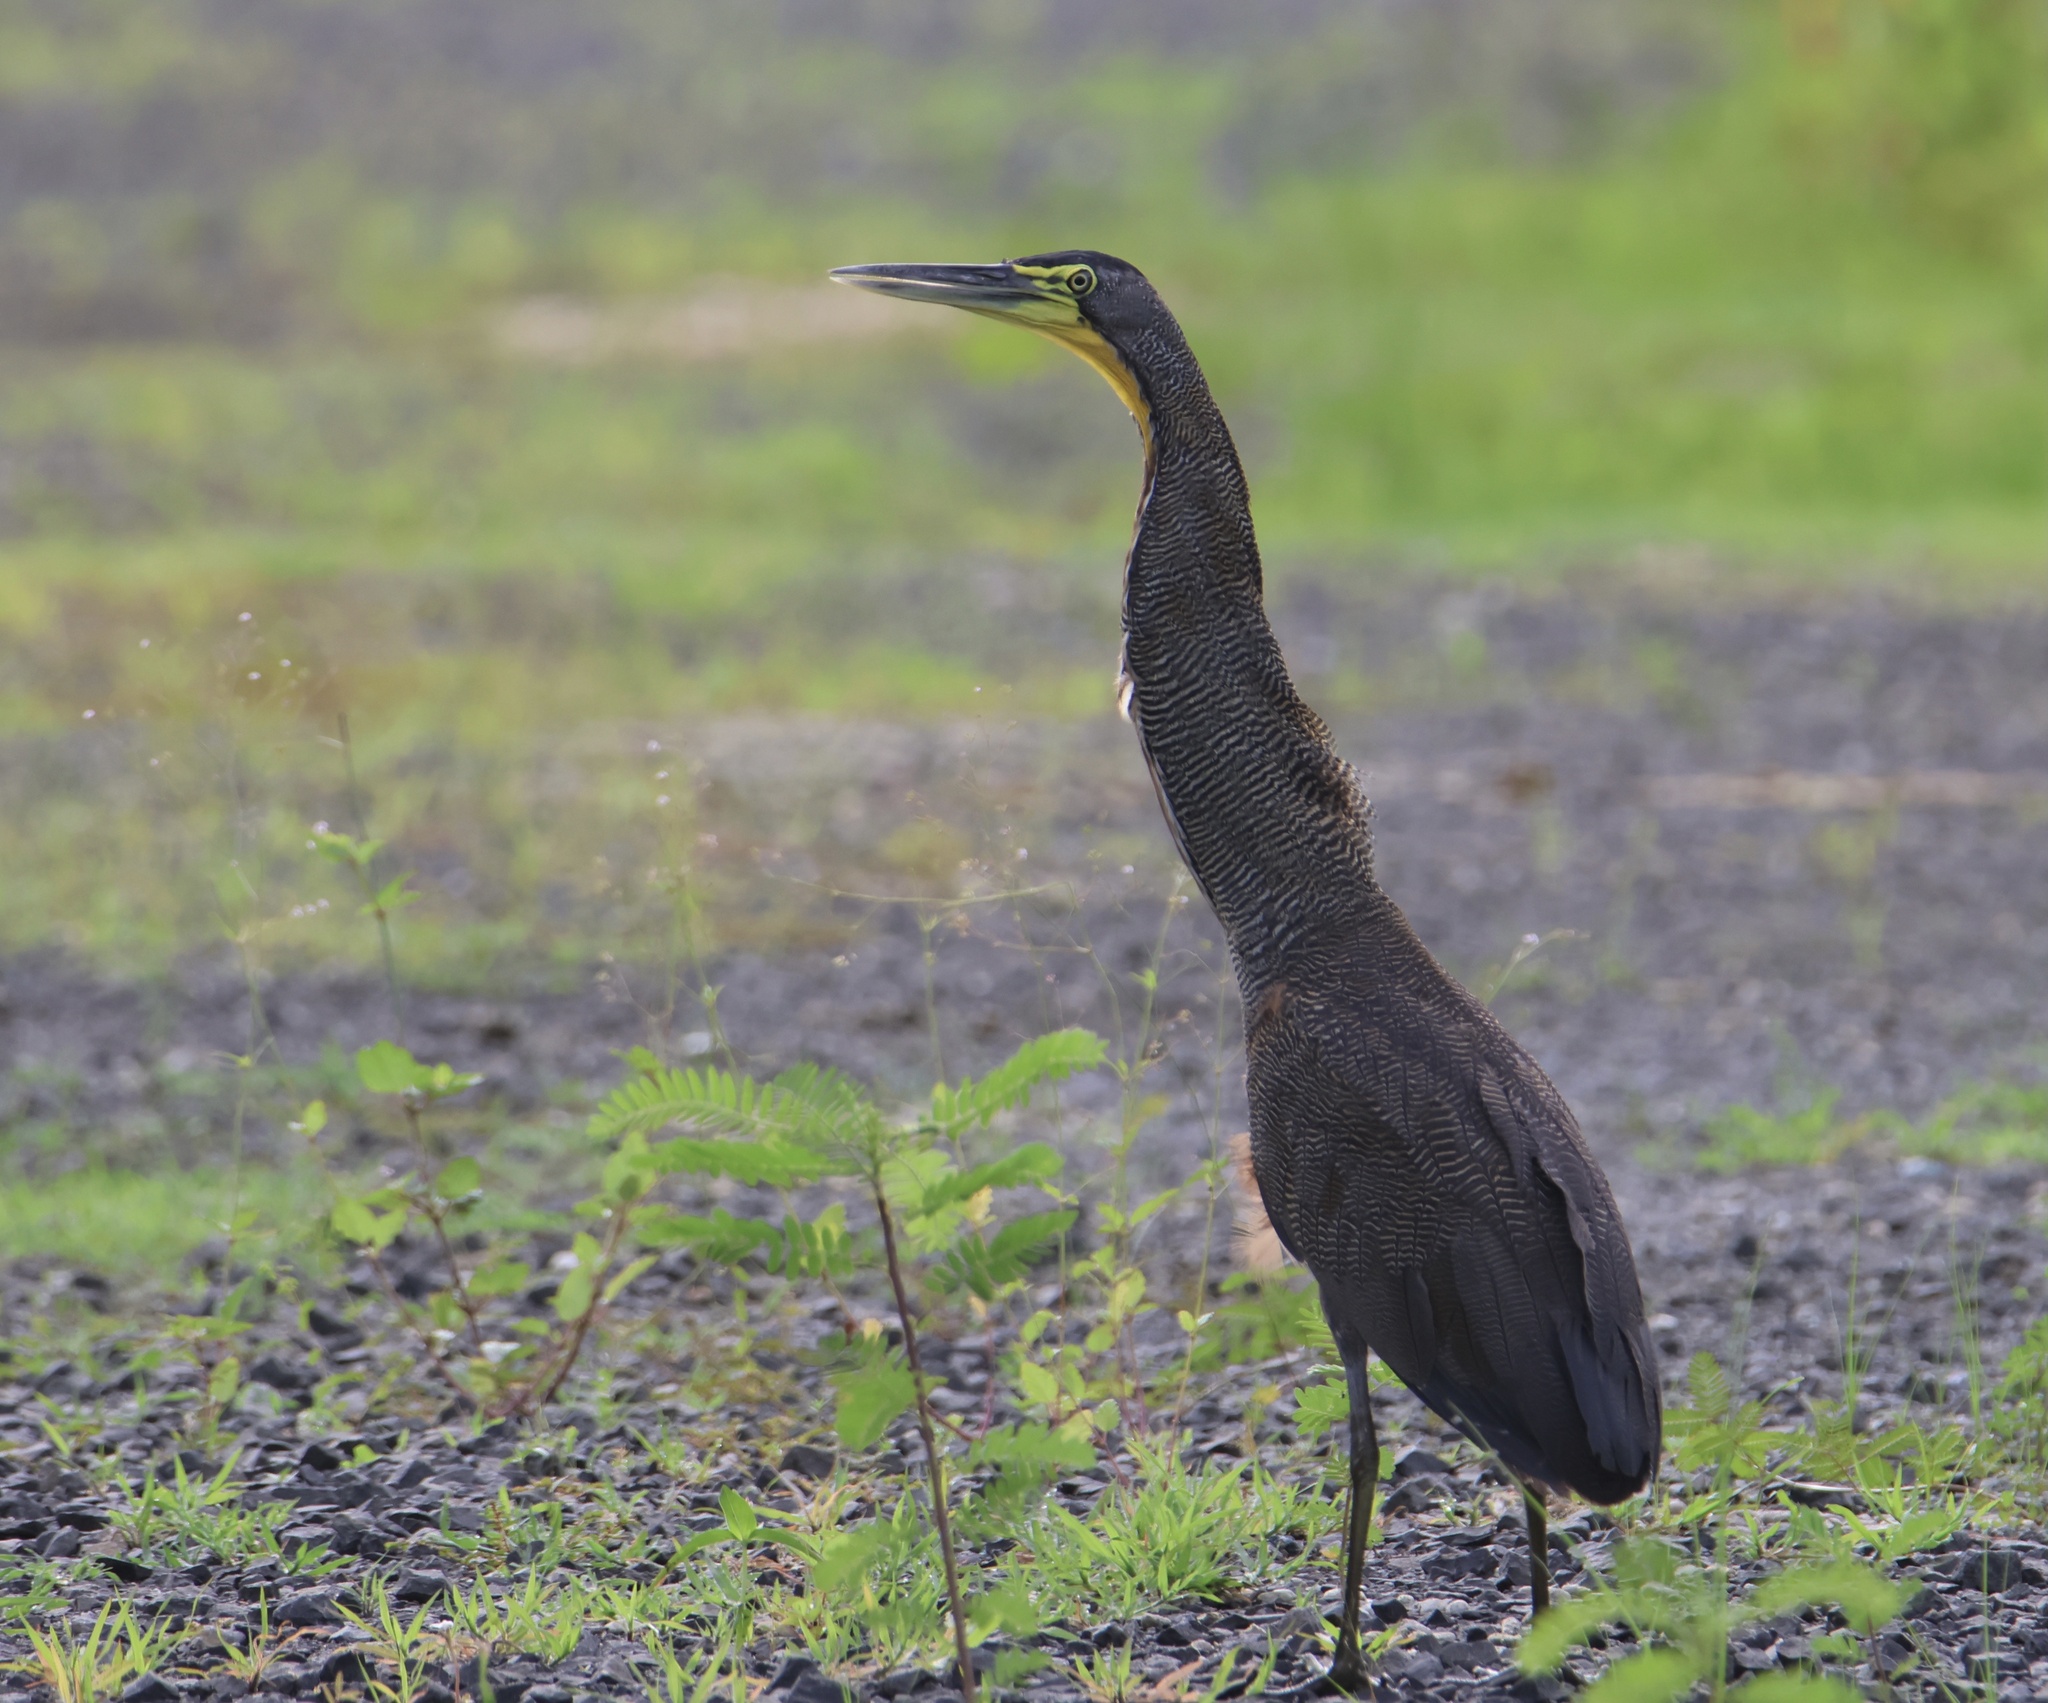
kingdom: Animalia
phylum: Chordata
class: Aves
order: Pelecaniformes
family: Ardeidae
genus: Tigrisoma
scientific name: Tigrisoma mexicanum
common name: Bare-throated tiger-heron
